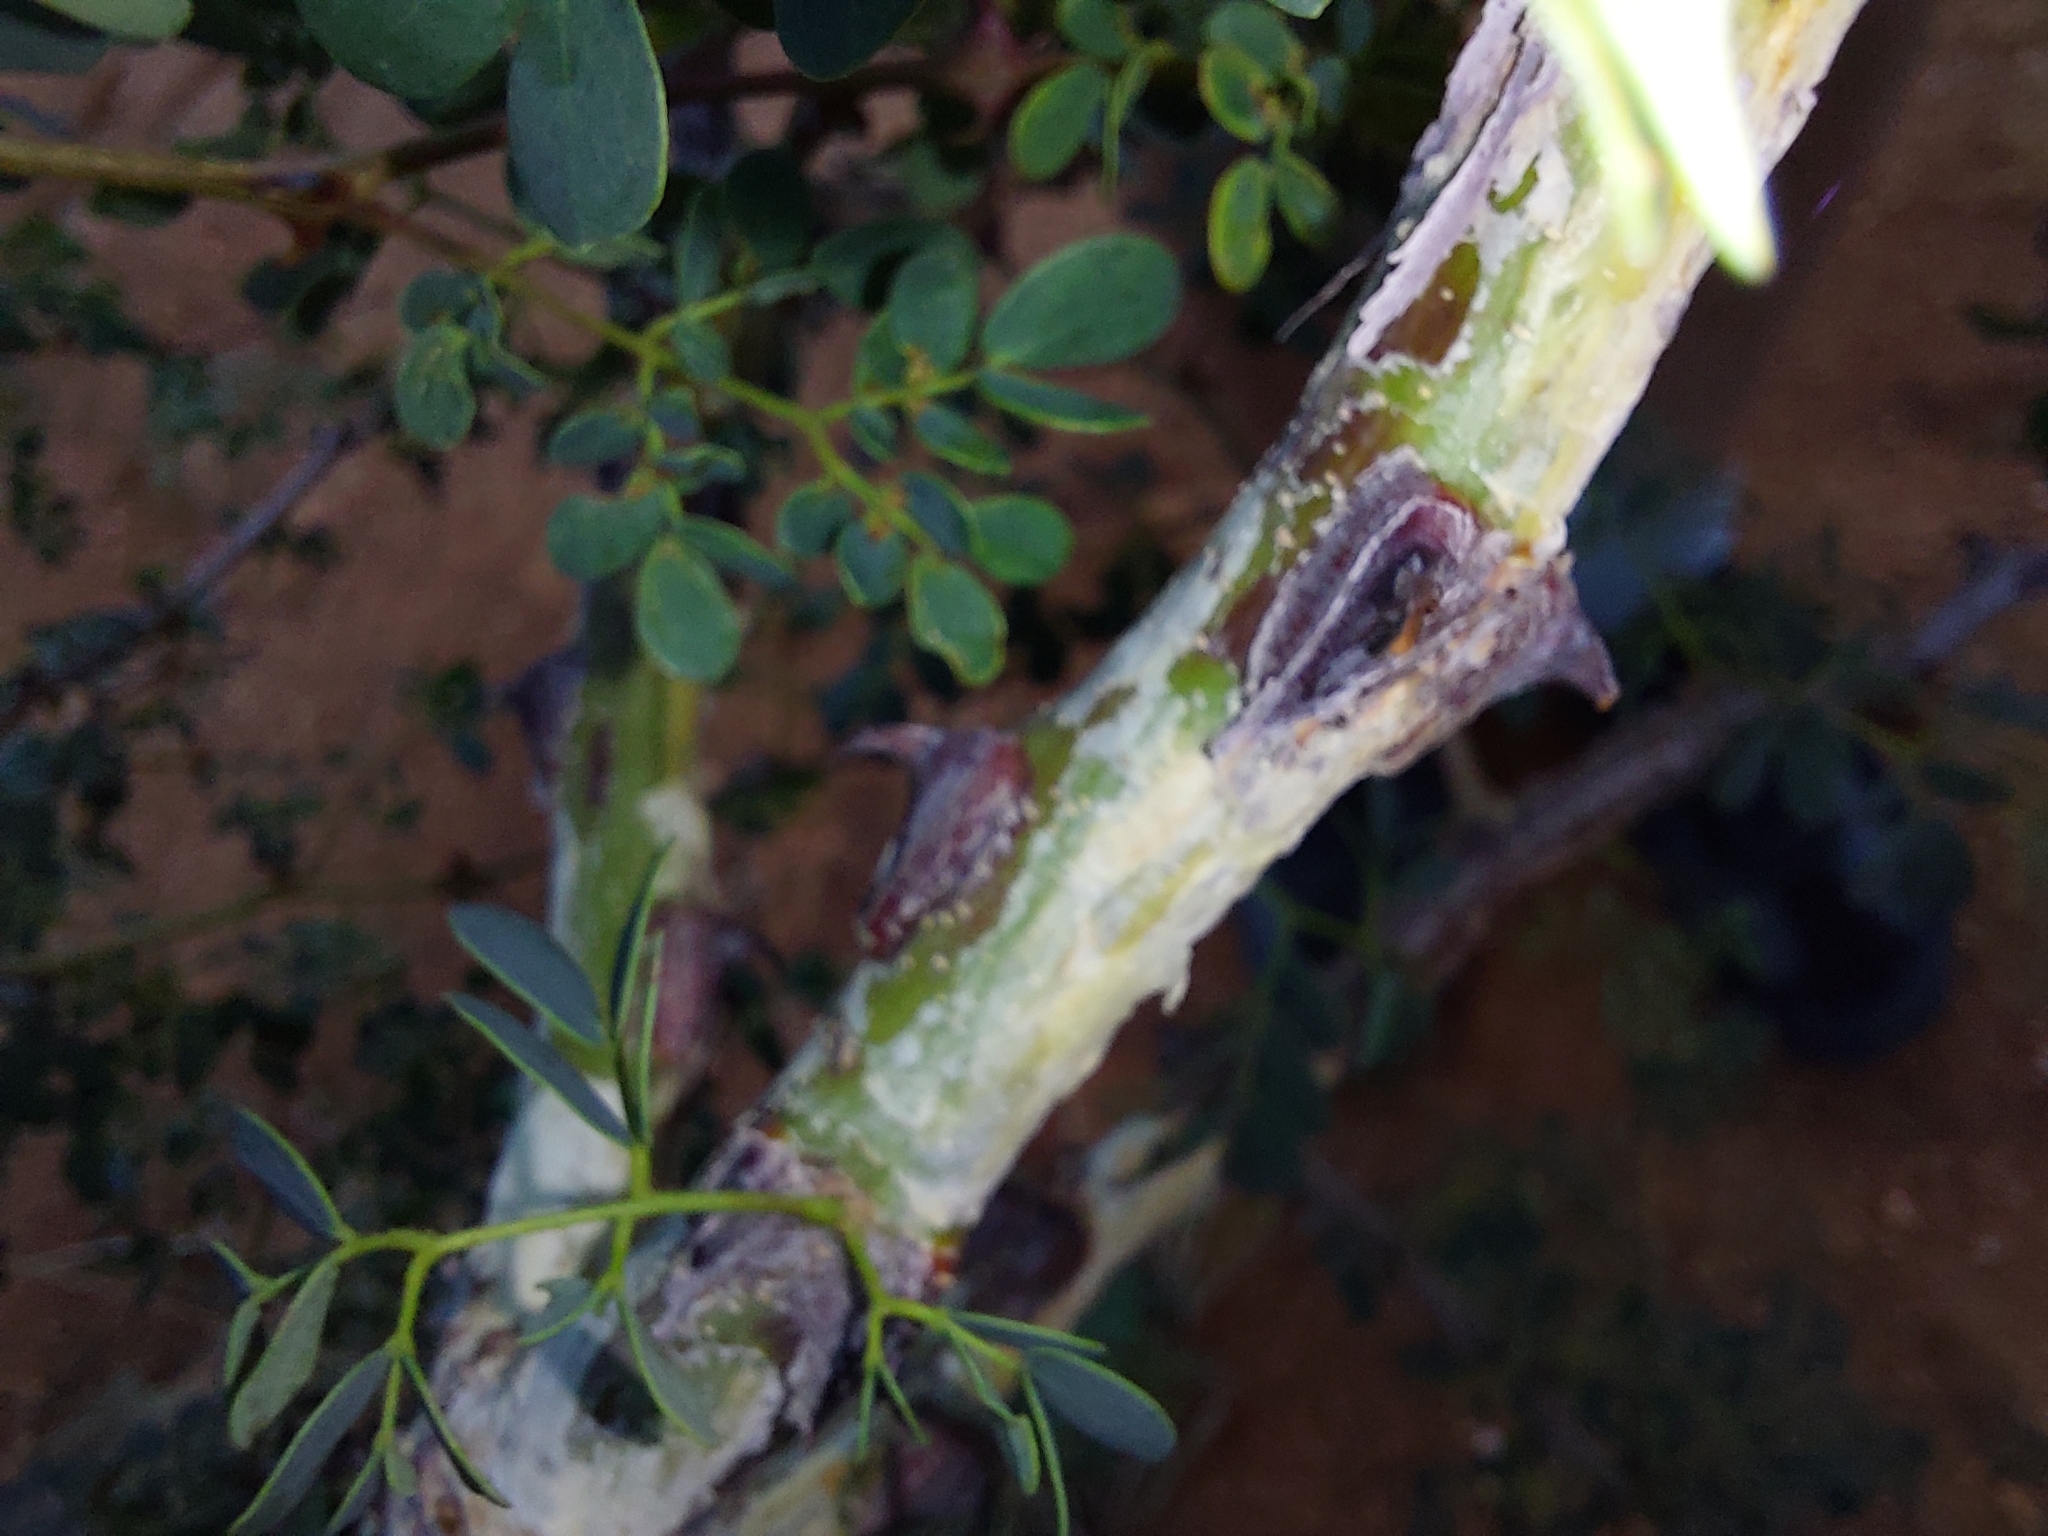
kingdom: Plantae
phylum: Tracheophyta
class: Magnoliopsida
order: Fabales
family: Fabaceae
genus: Senegalia
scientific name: Senegalia burkei
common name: Black monkey thorn
